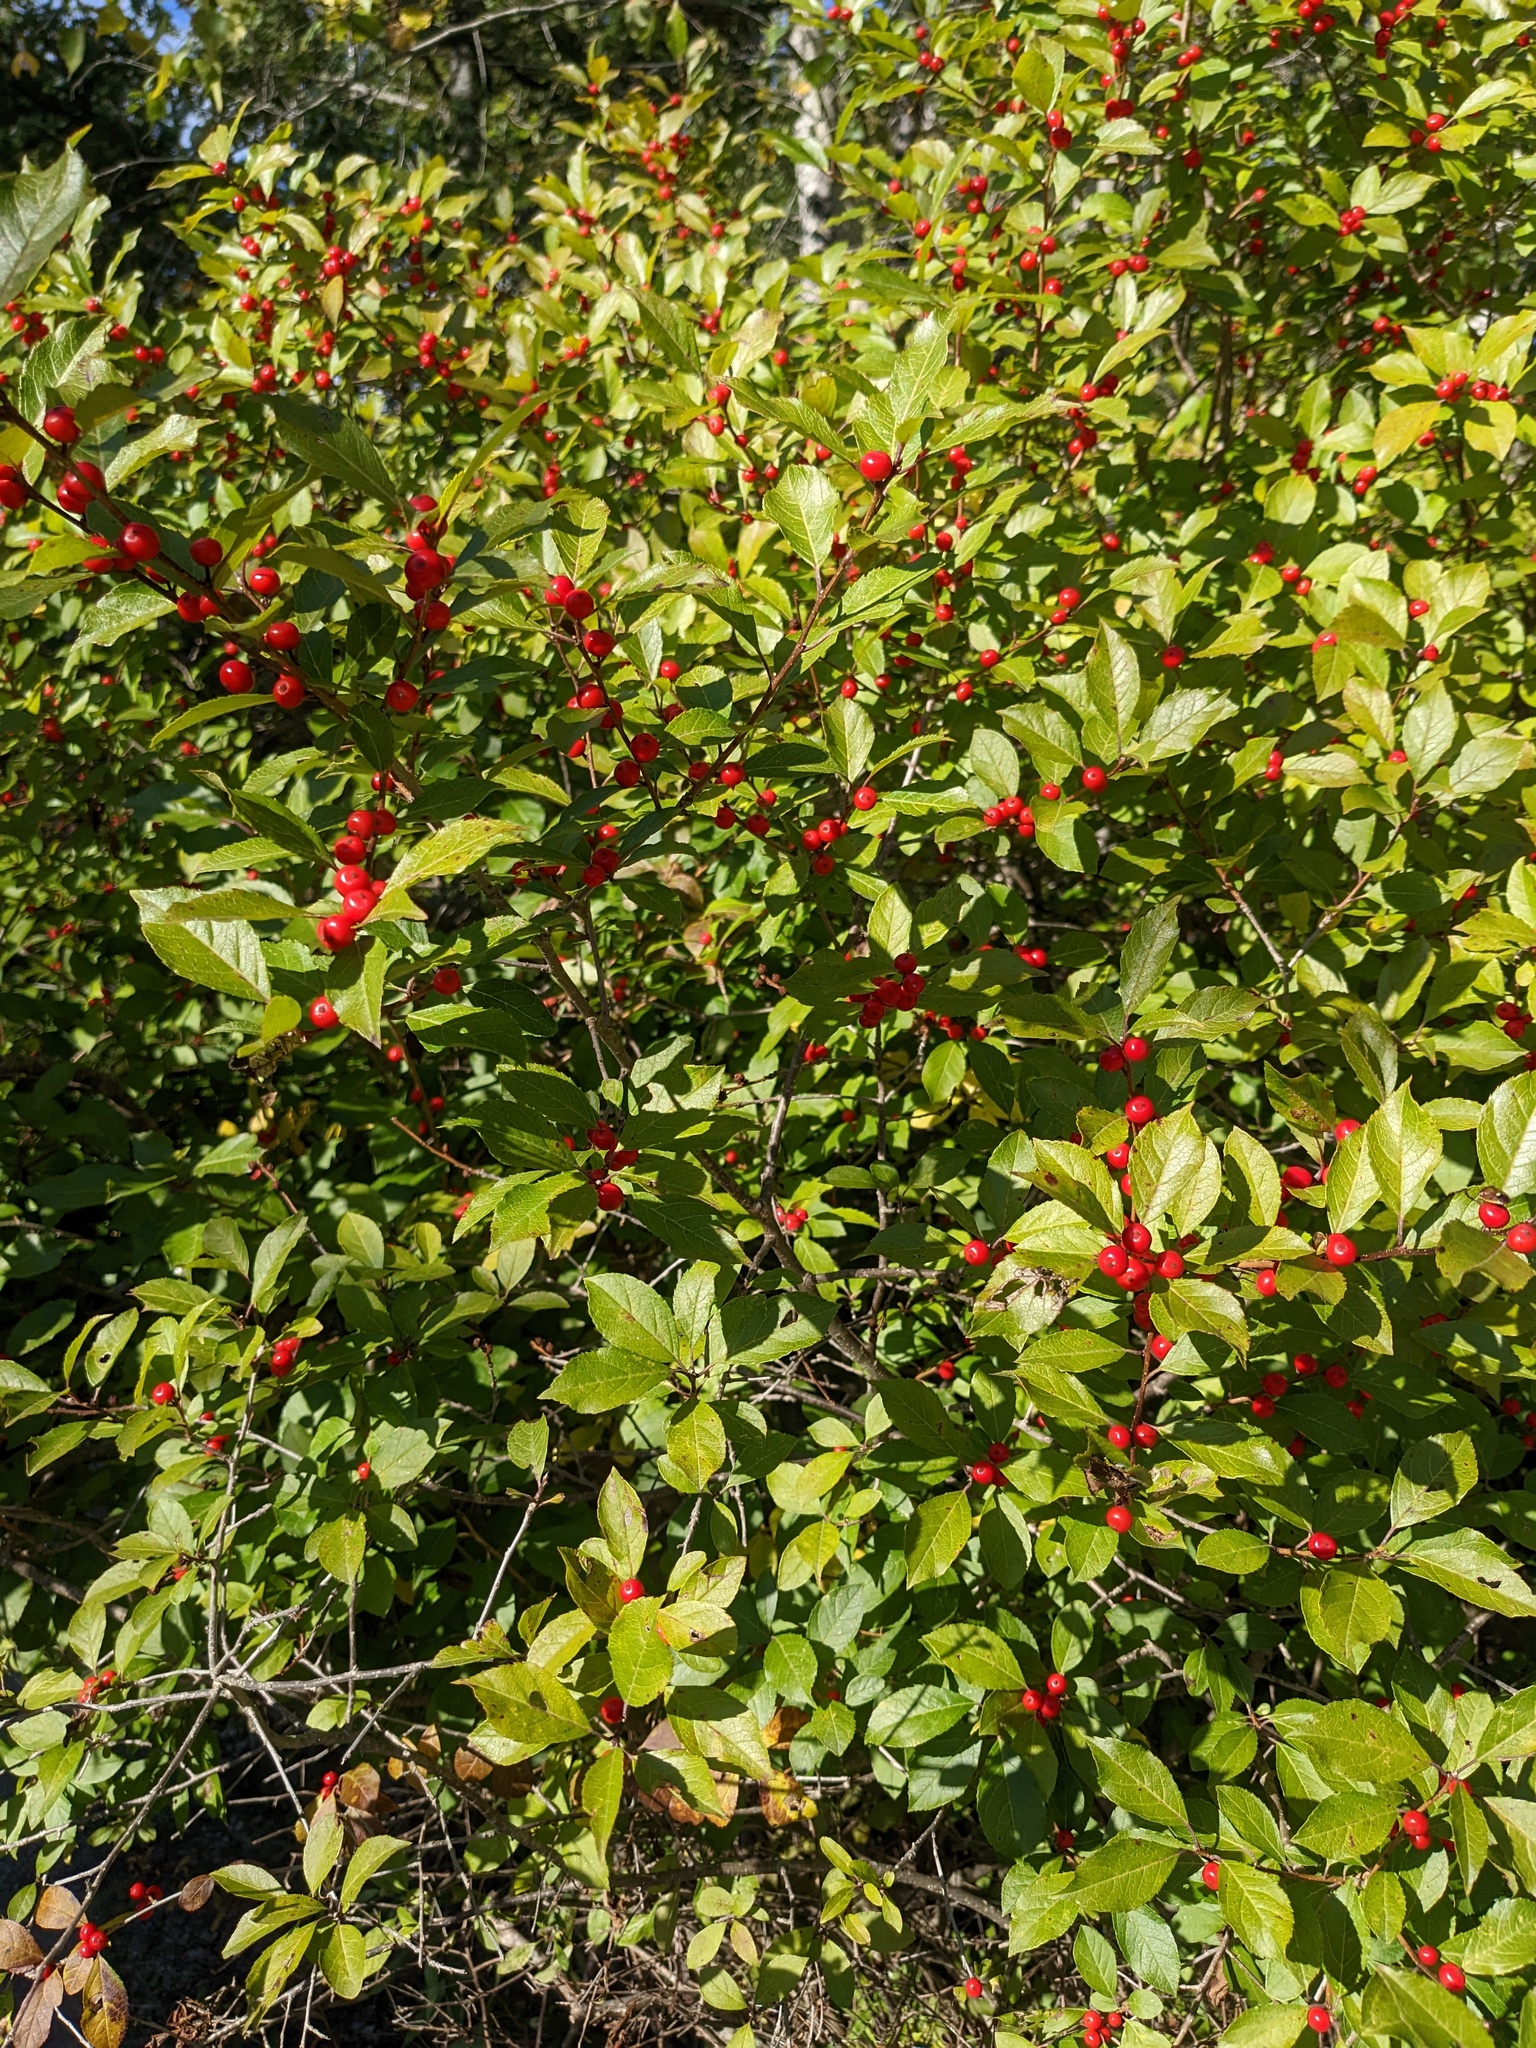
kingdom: Plantae
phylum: Tracheophyta
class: Magnoliopsida
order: Aquifoliales
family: Aquifoliaceae
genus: Ilex
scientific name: Ilex verticillata
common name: Virginia winterberry
